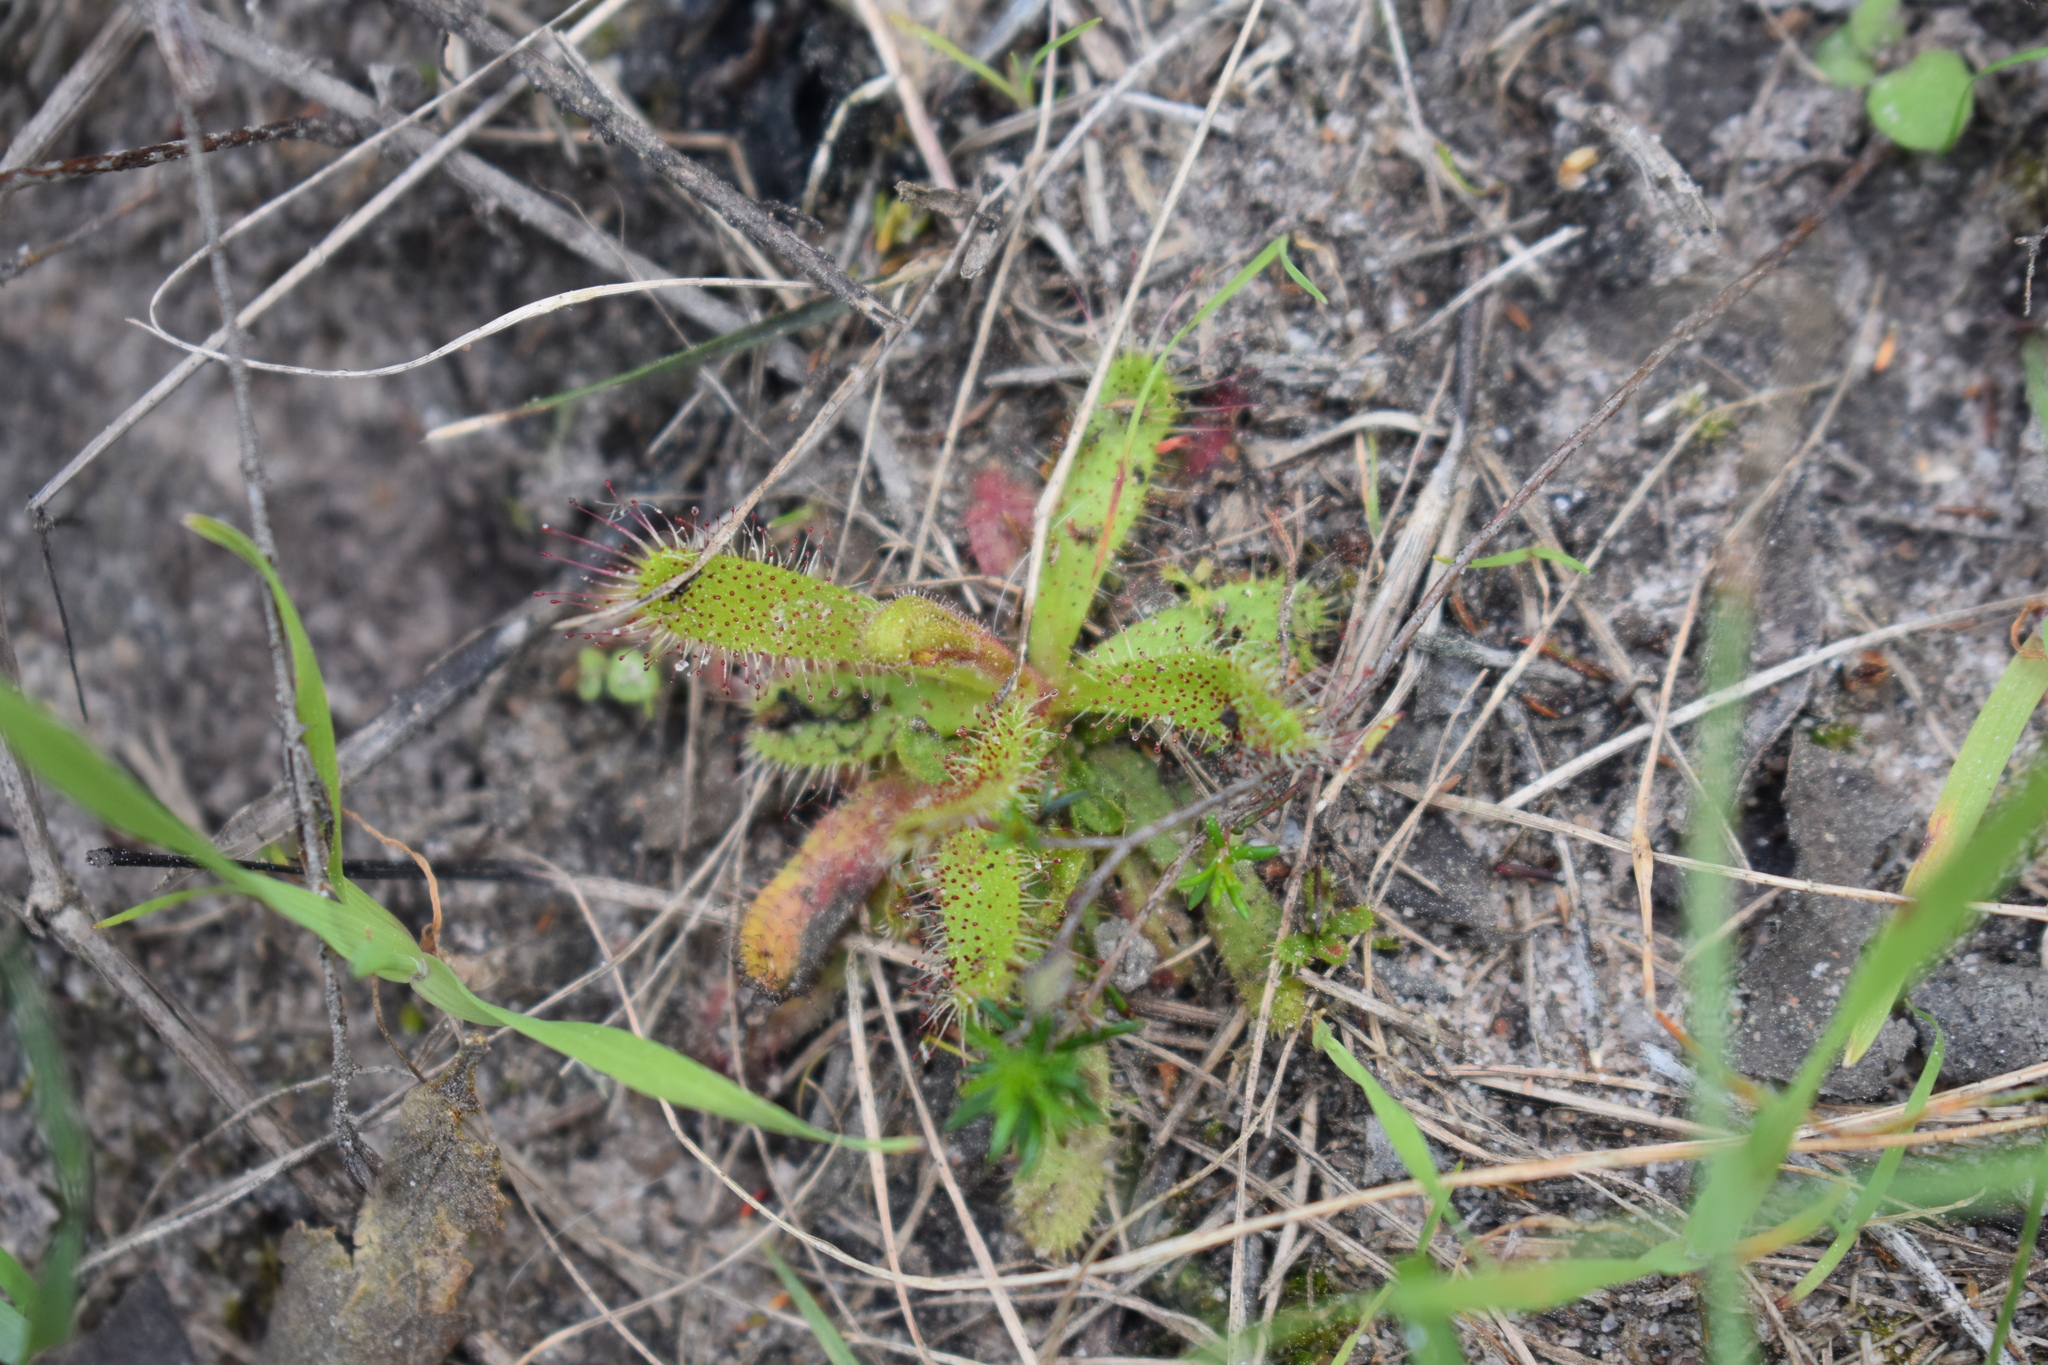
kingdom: Plantae
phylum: Tracheophyta
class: Magnoliopsida
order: Caryophyllales
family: Droseraceae
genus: Drosera
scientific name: Drosera cistiflora
